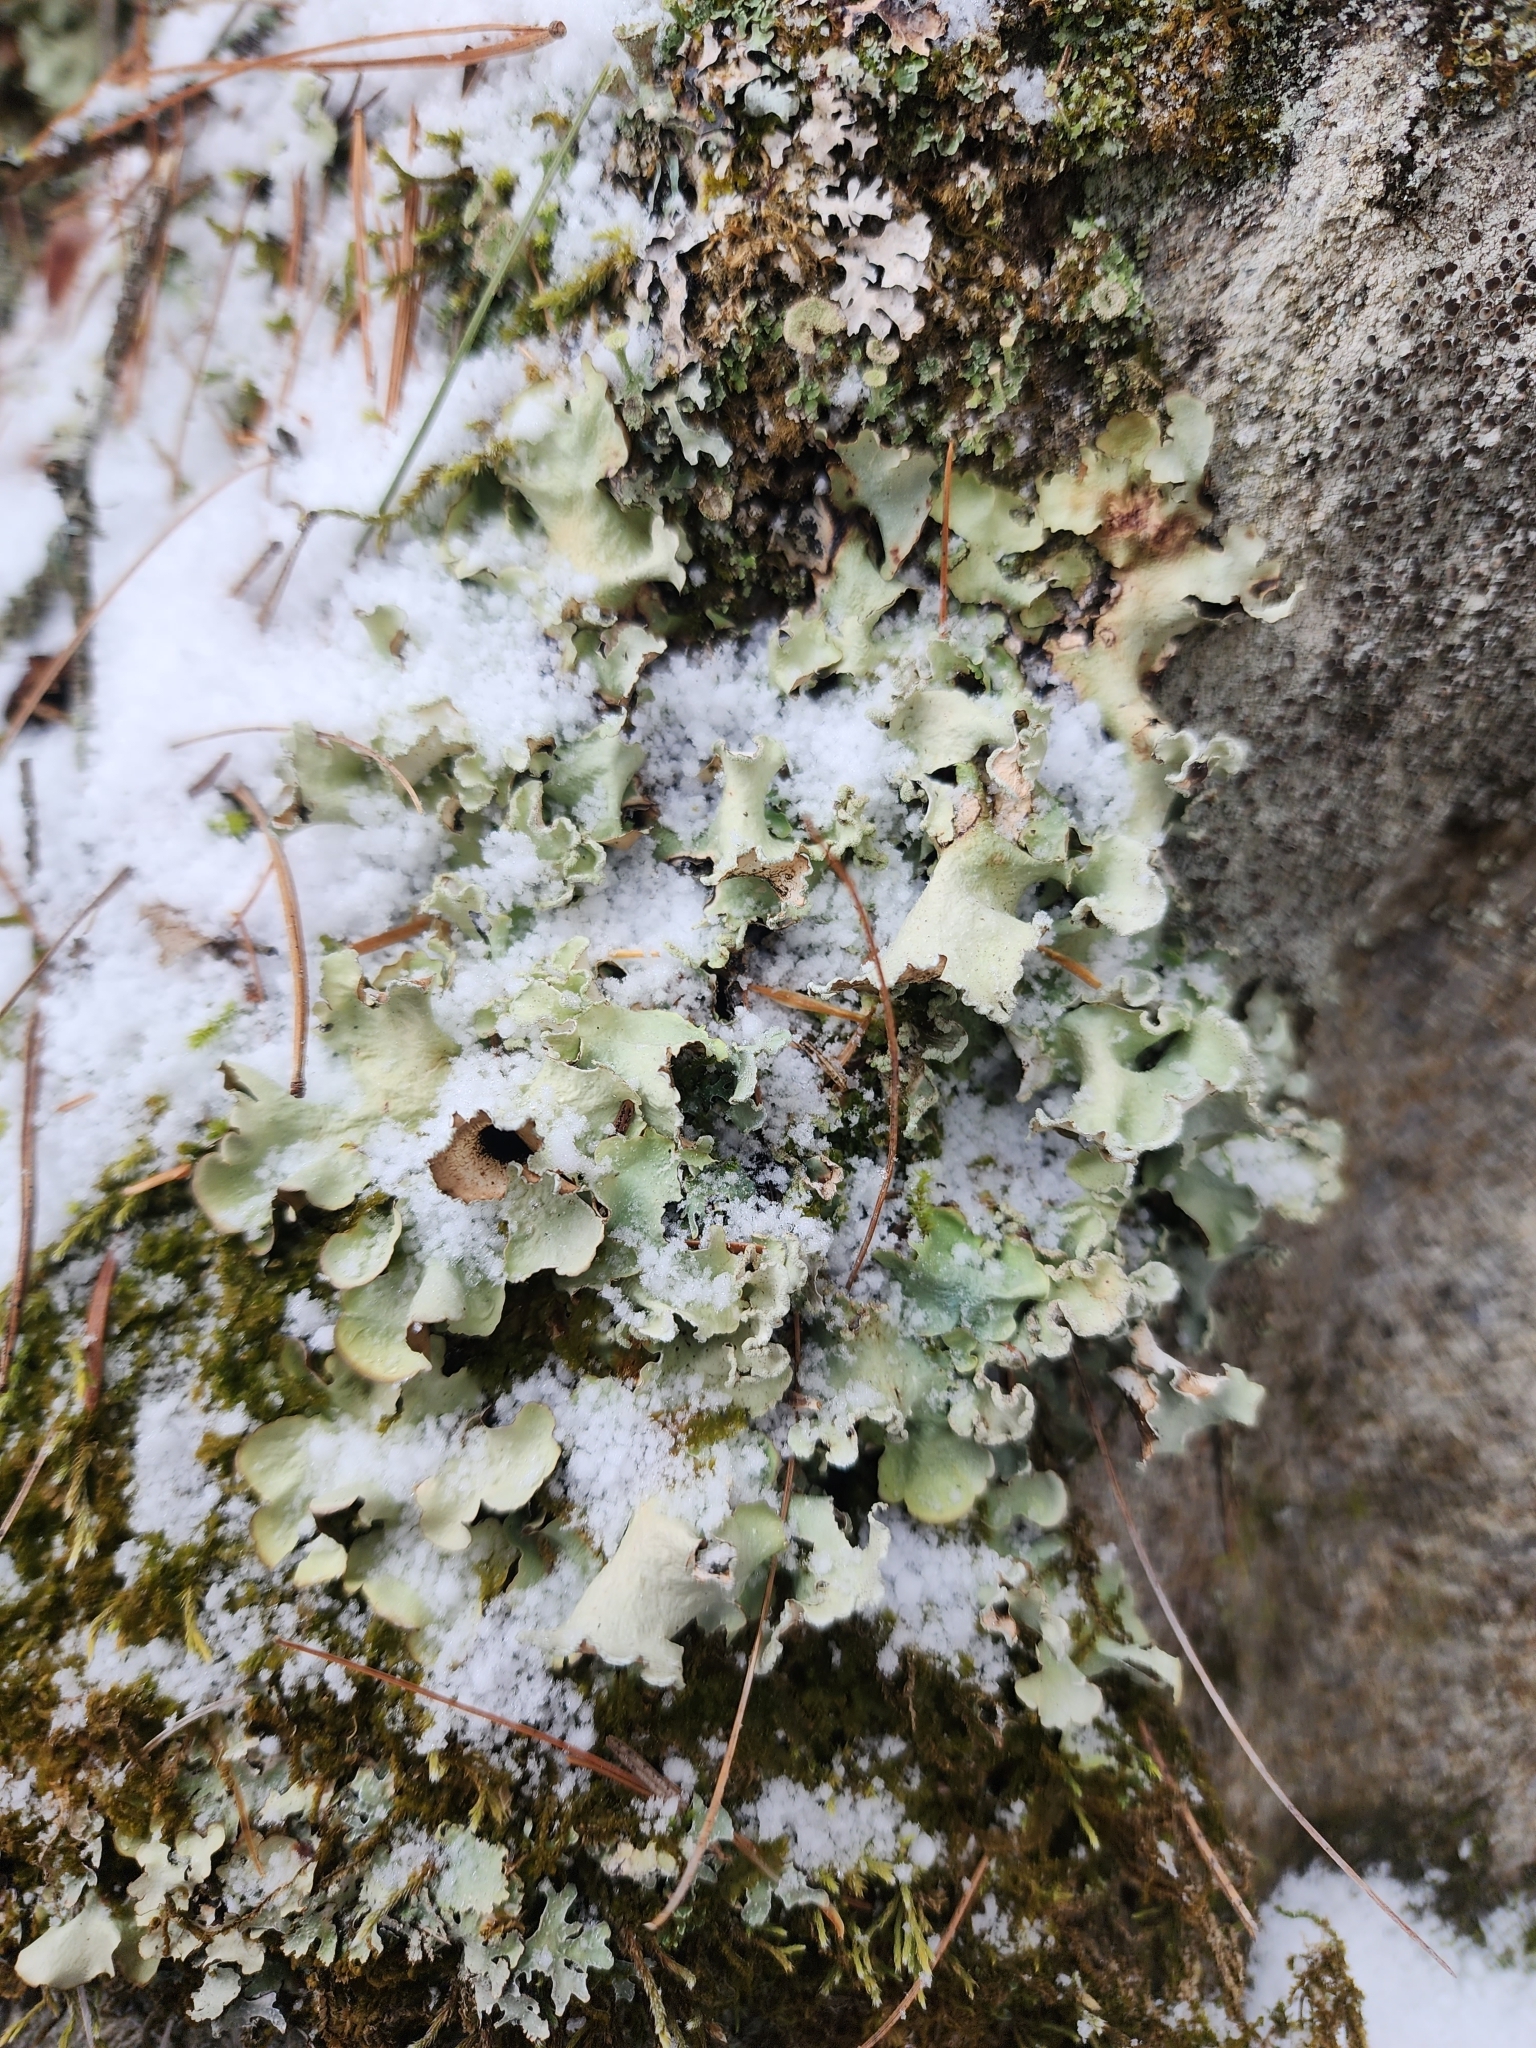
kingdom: Fungi
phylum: Ascomycota
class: Lecanoromycetes
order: Lecanorales
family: Parmeliaceae
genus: Cetrelia
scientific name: Cetrelia olivetorum
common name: Sea storm lichen
